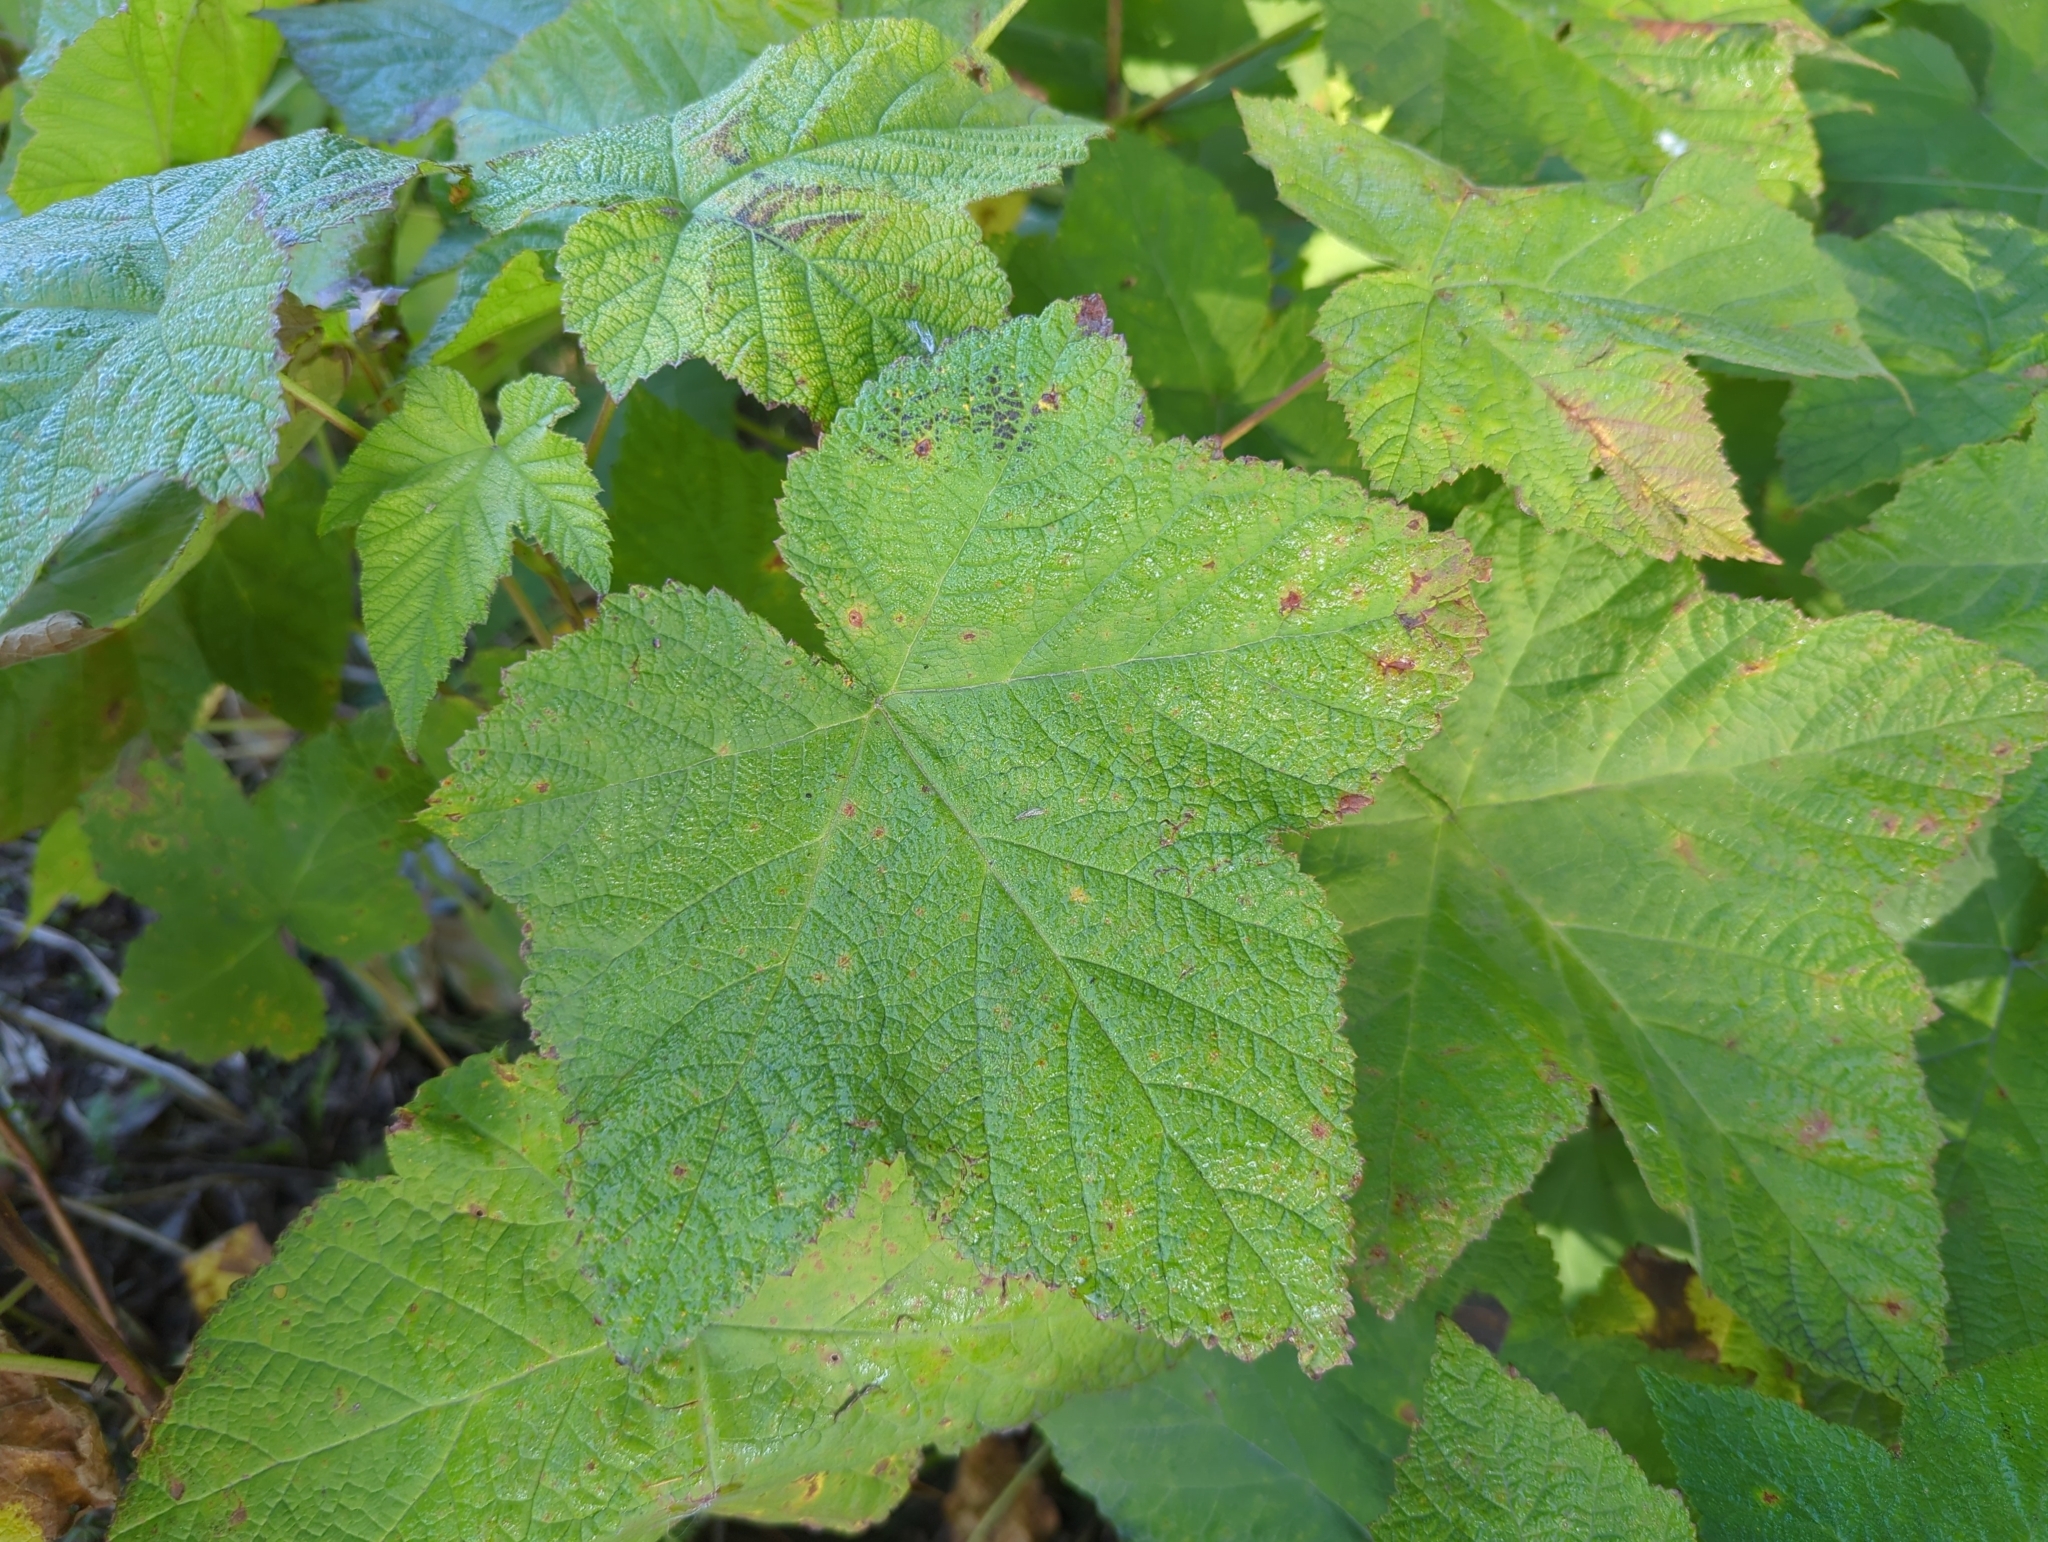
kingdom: Plantae
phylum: Tracheophyta
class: Magnoliopsida
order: Rosales
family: Rosaceae
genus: Rubus
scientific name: Rubus parviflorus
